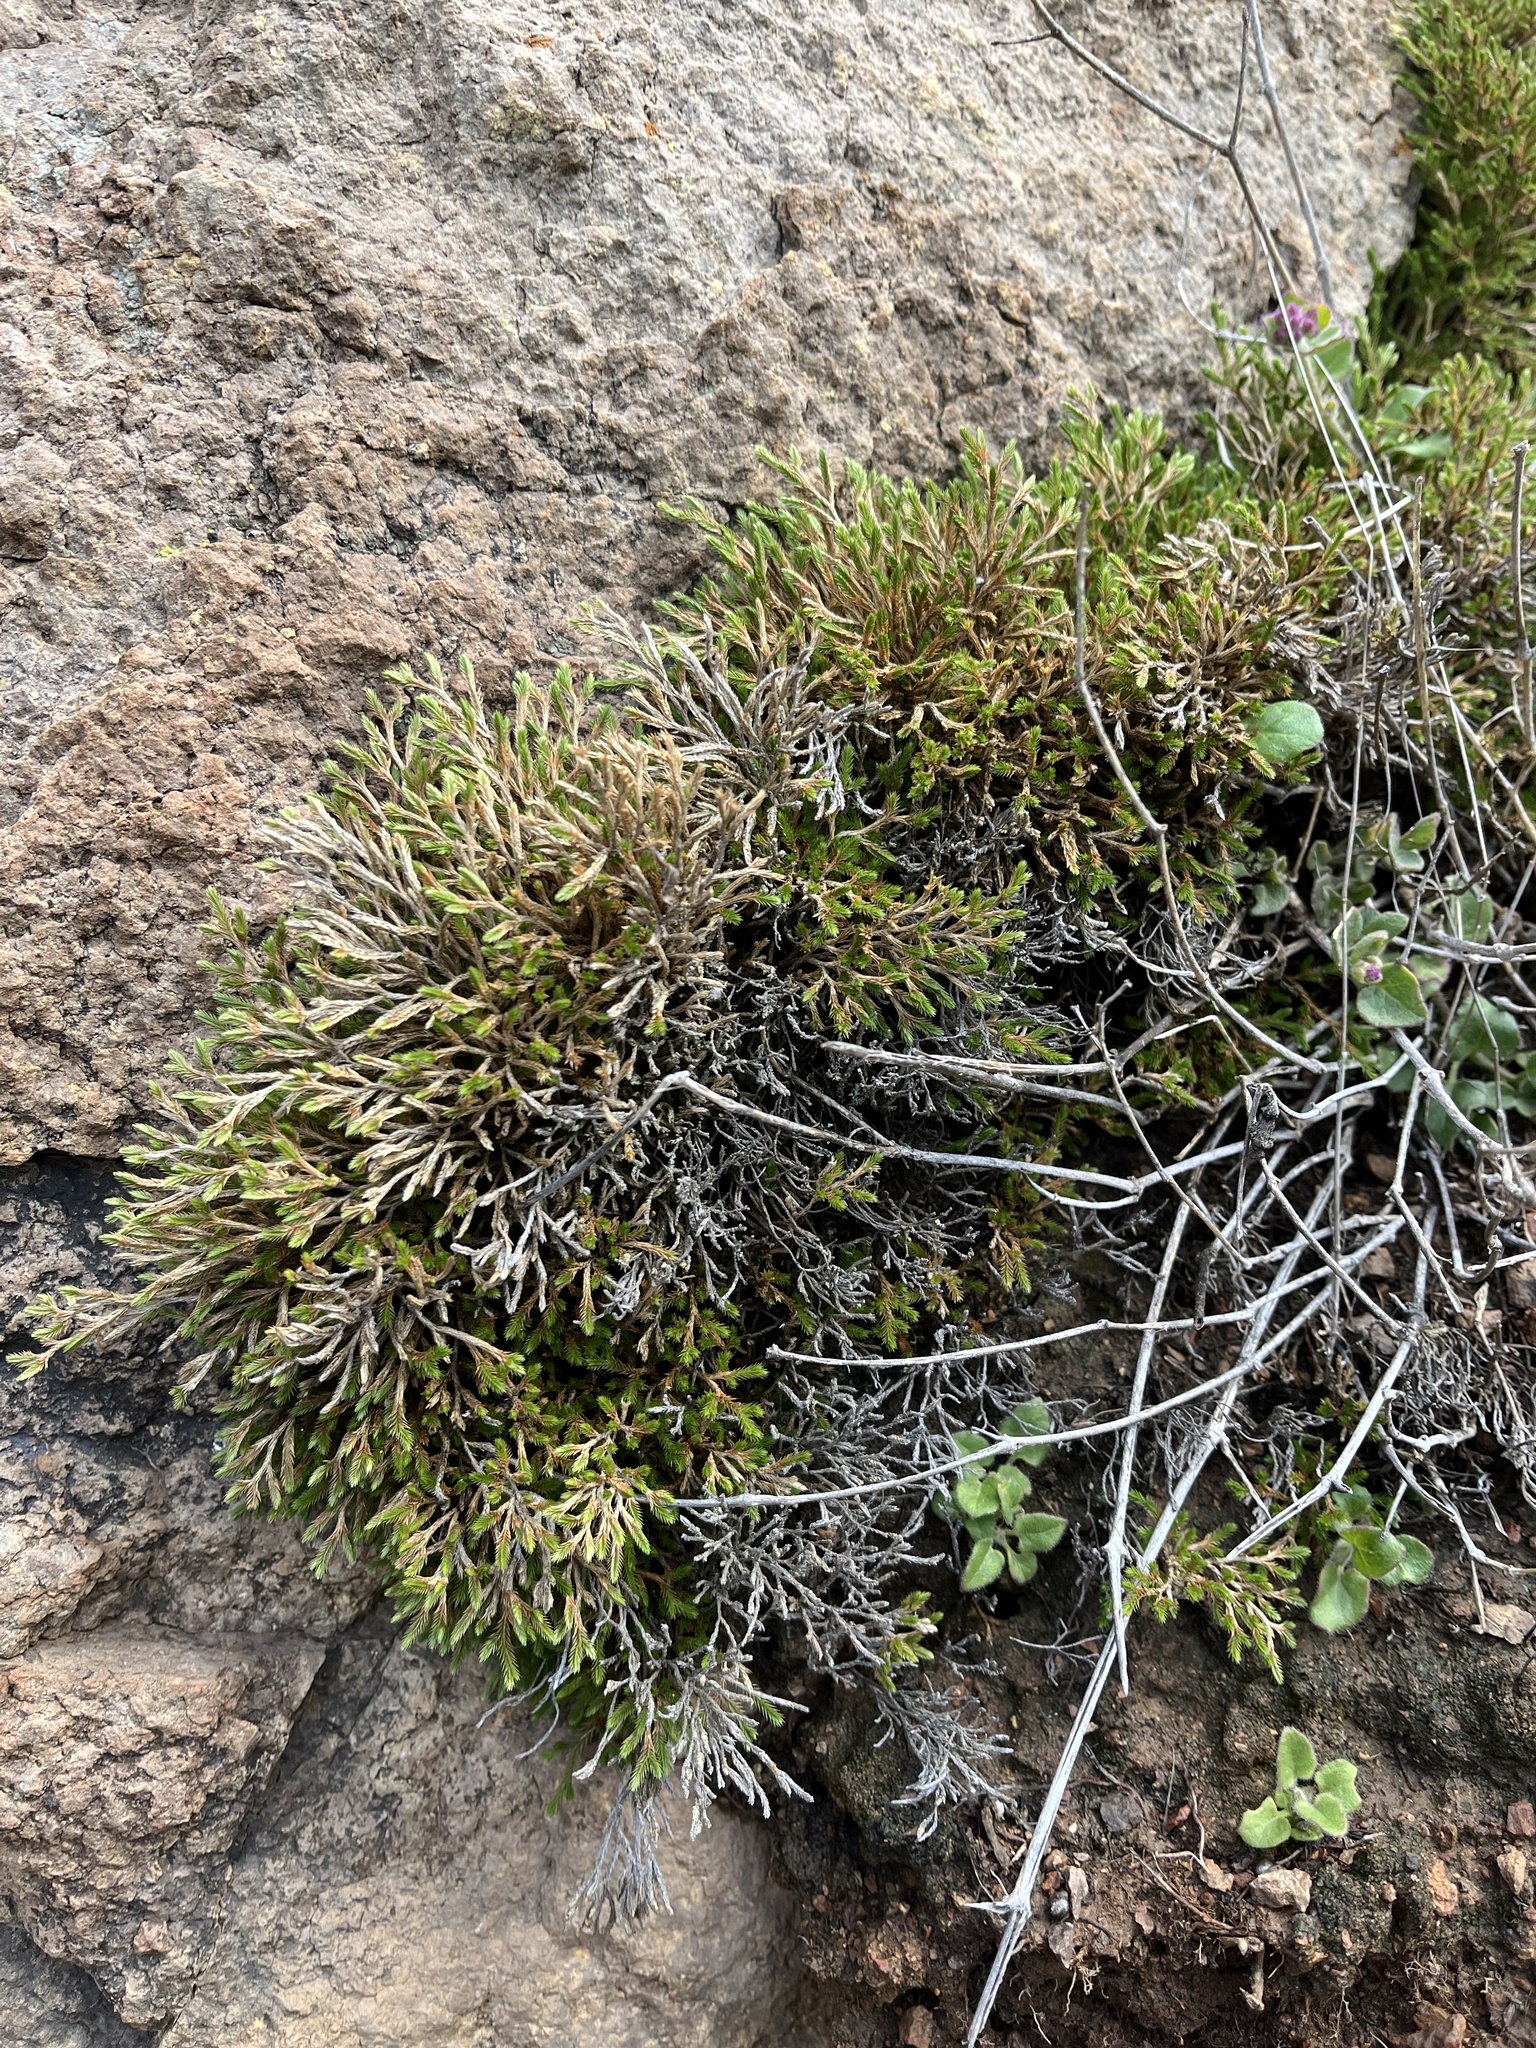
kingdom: Plantae
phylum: Tracheophyta
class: Lycopodiopsida
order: Selaginellales
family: Selaginellaceae
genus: Selaginella
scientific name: Selaginella bigelovii
